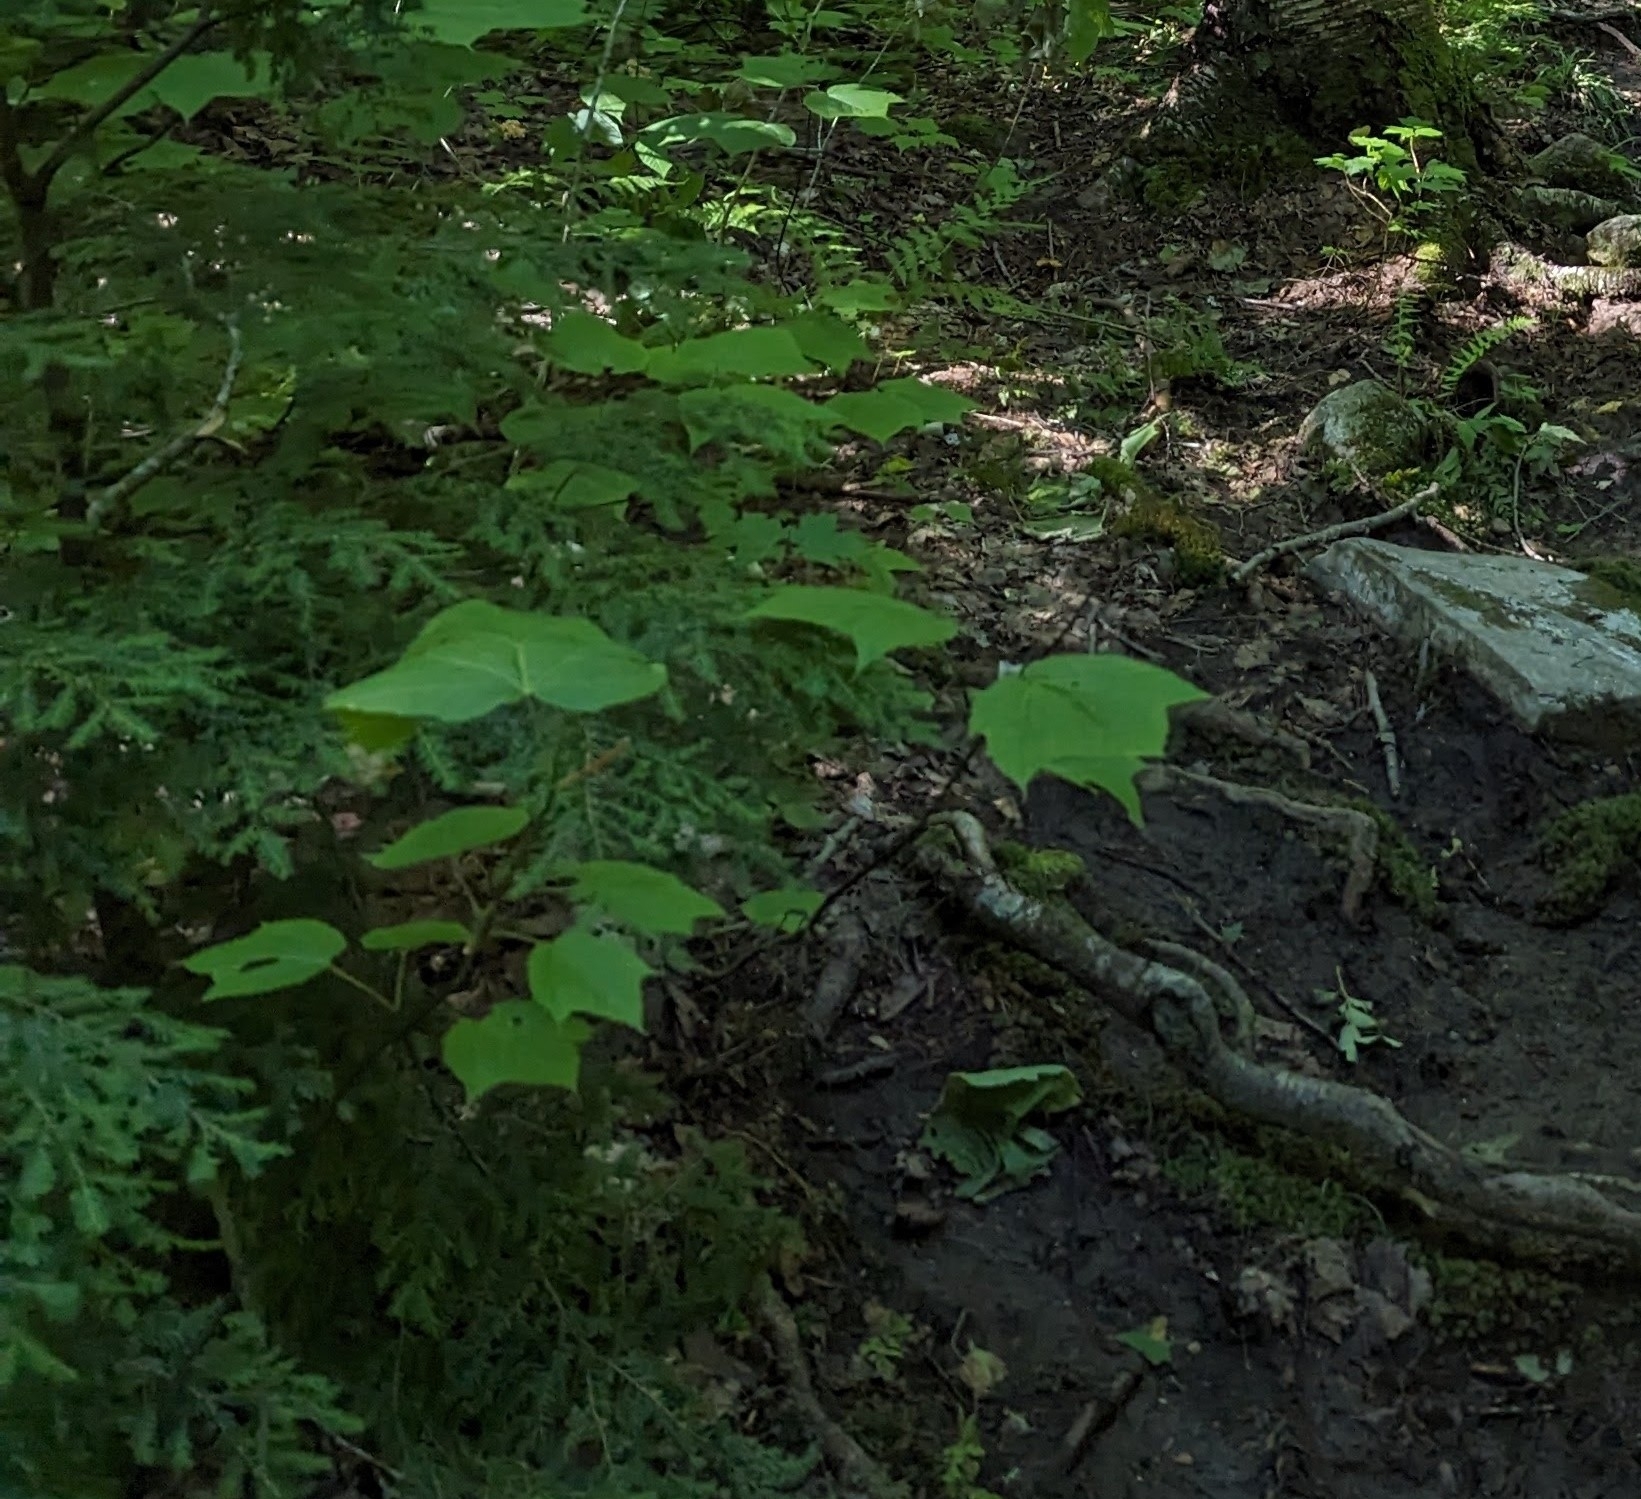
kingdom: Plantae
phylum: Tracheophyta
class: Magnoliopsida
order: Sapindales
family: Sapindaceae
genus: Acer
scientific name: Acer pensylvanicum
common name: Moosewood
